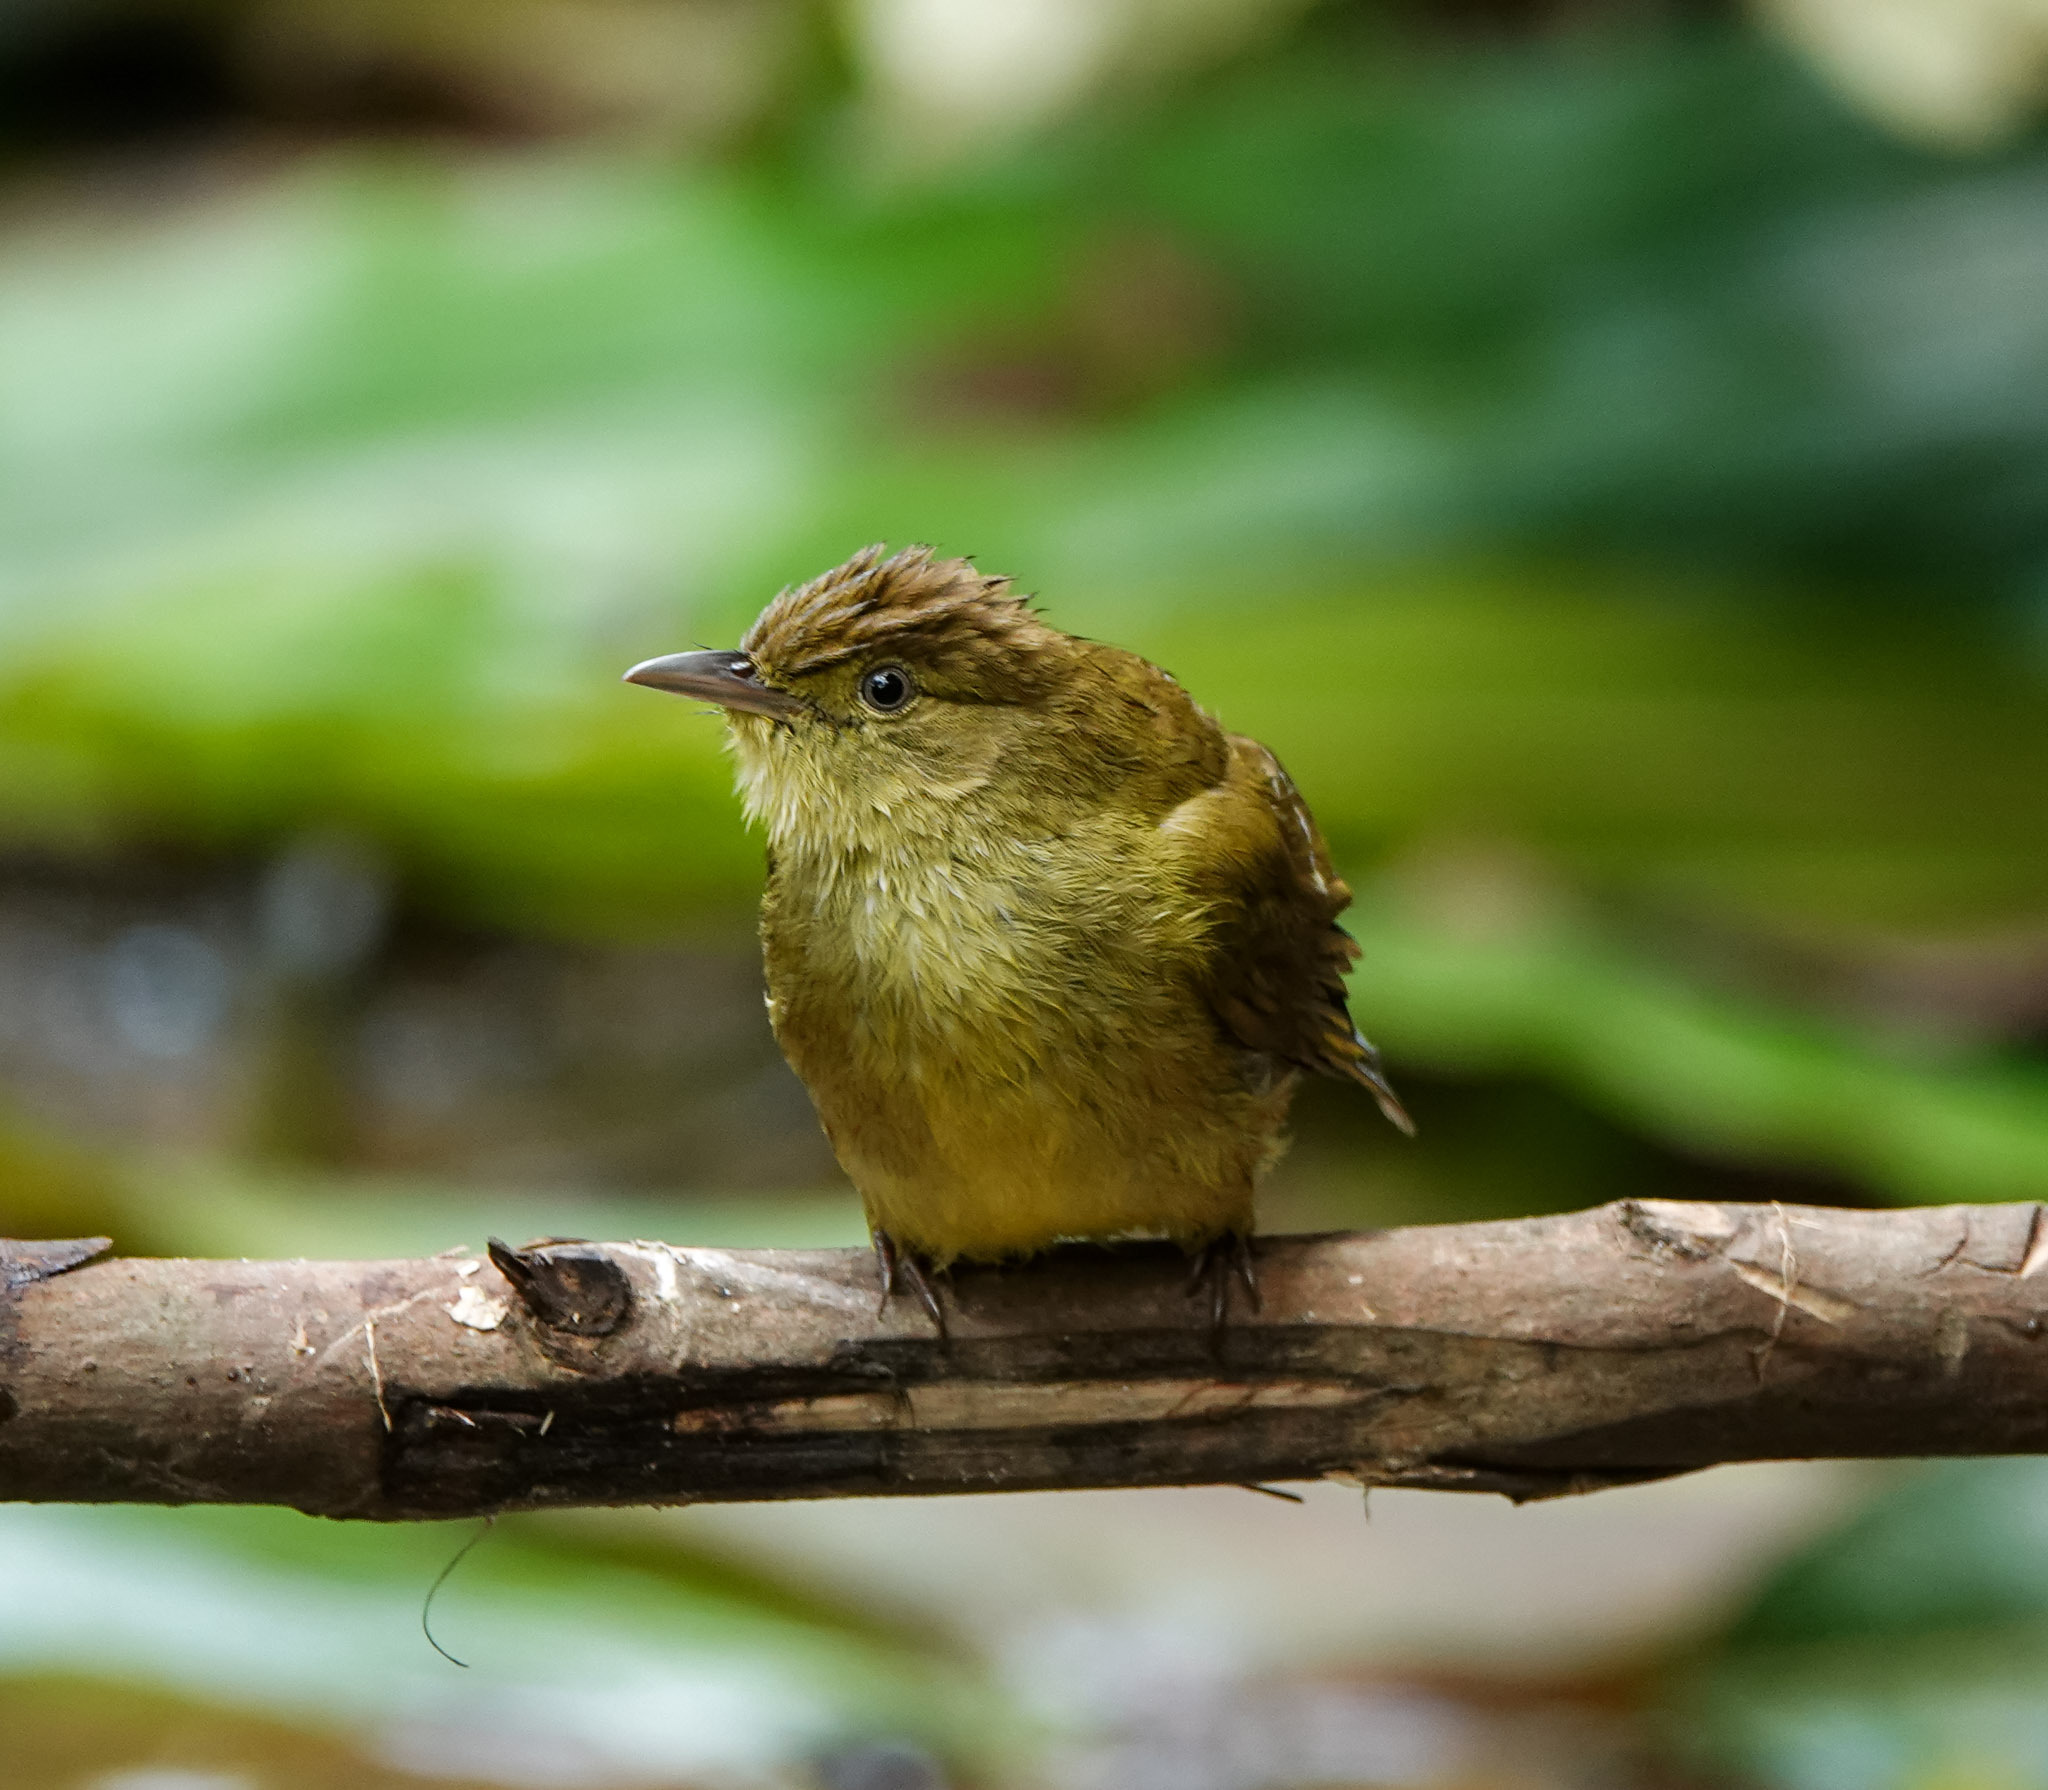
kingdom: Animalia
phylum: Chordata
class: Aves
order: Passeriformes
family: Pycnonotidae
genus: Iole
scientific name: Iole virescens
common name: Olive bulbul
